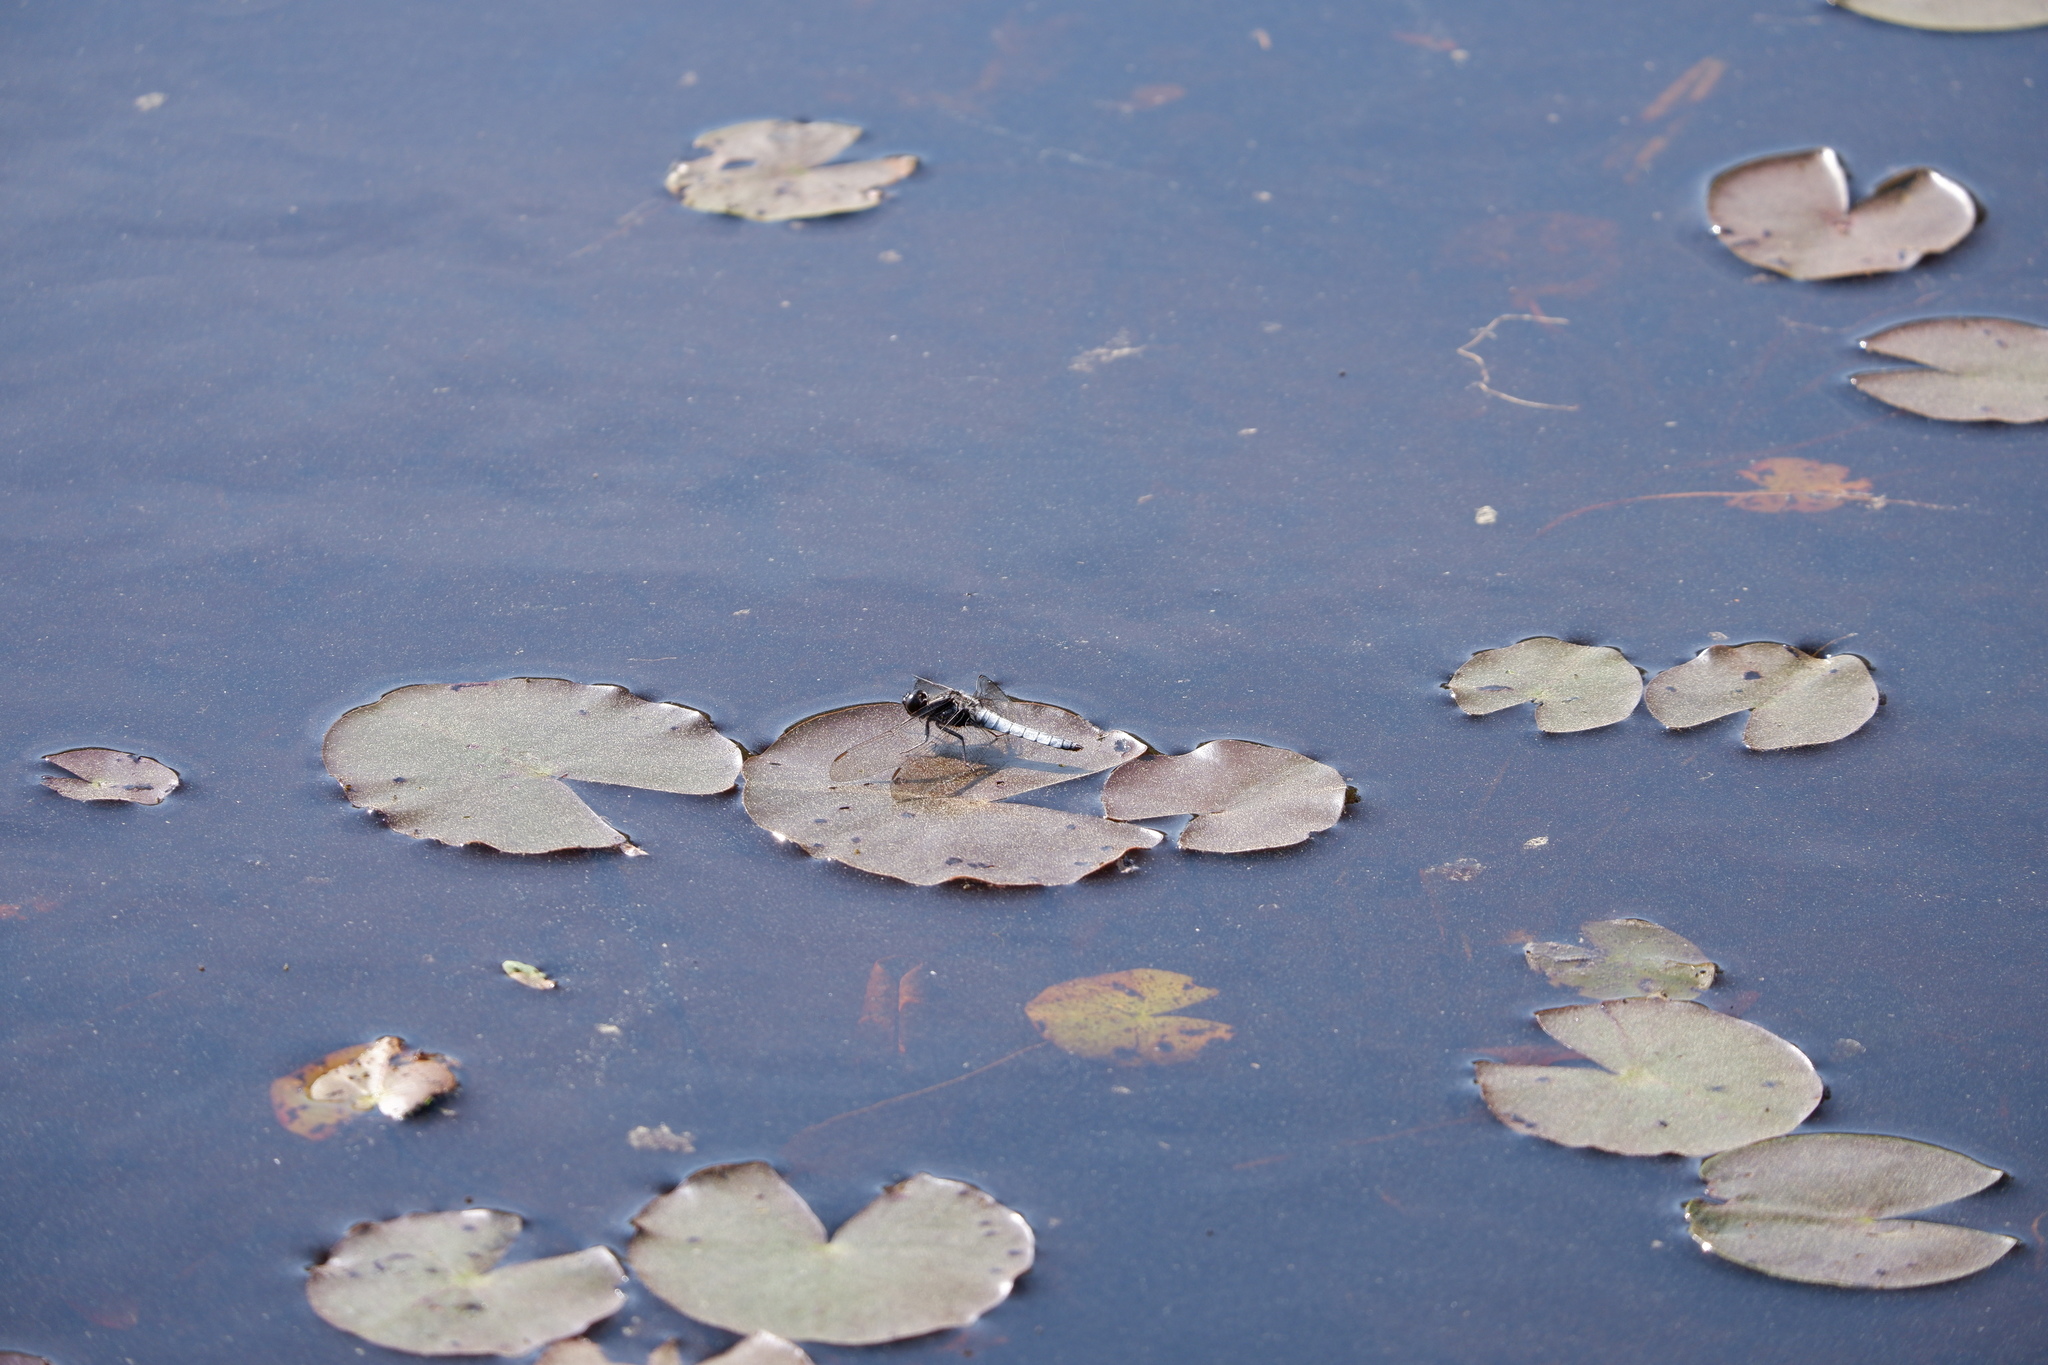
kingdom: Animalia
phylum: Arthropoda
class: Insecta
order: Odonata
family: Libellulidae
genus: Ladona
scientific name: Ladona exusta
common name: Libellule embrasée
